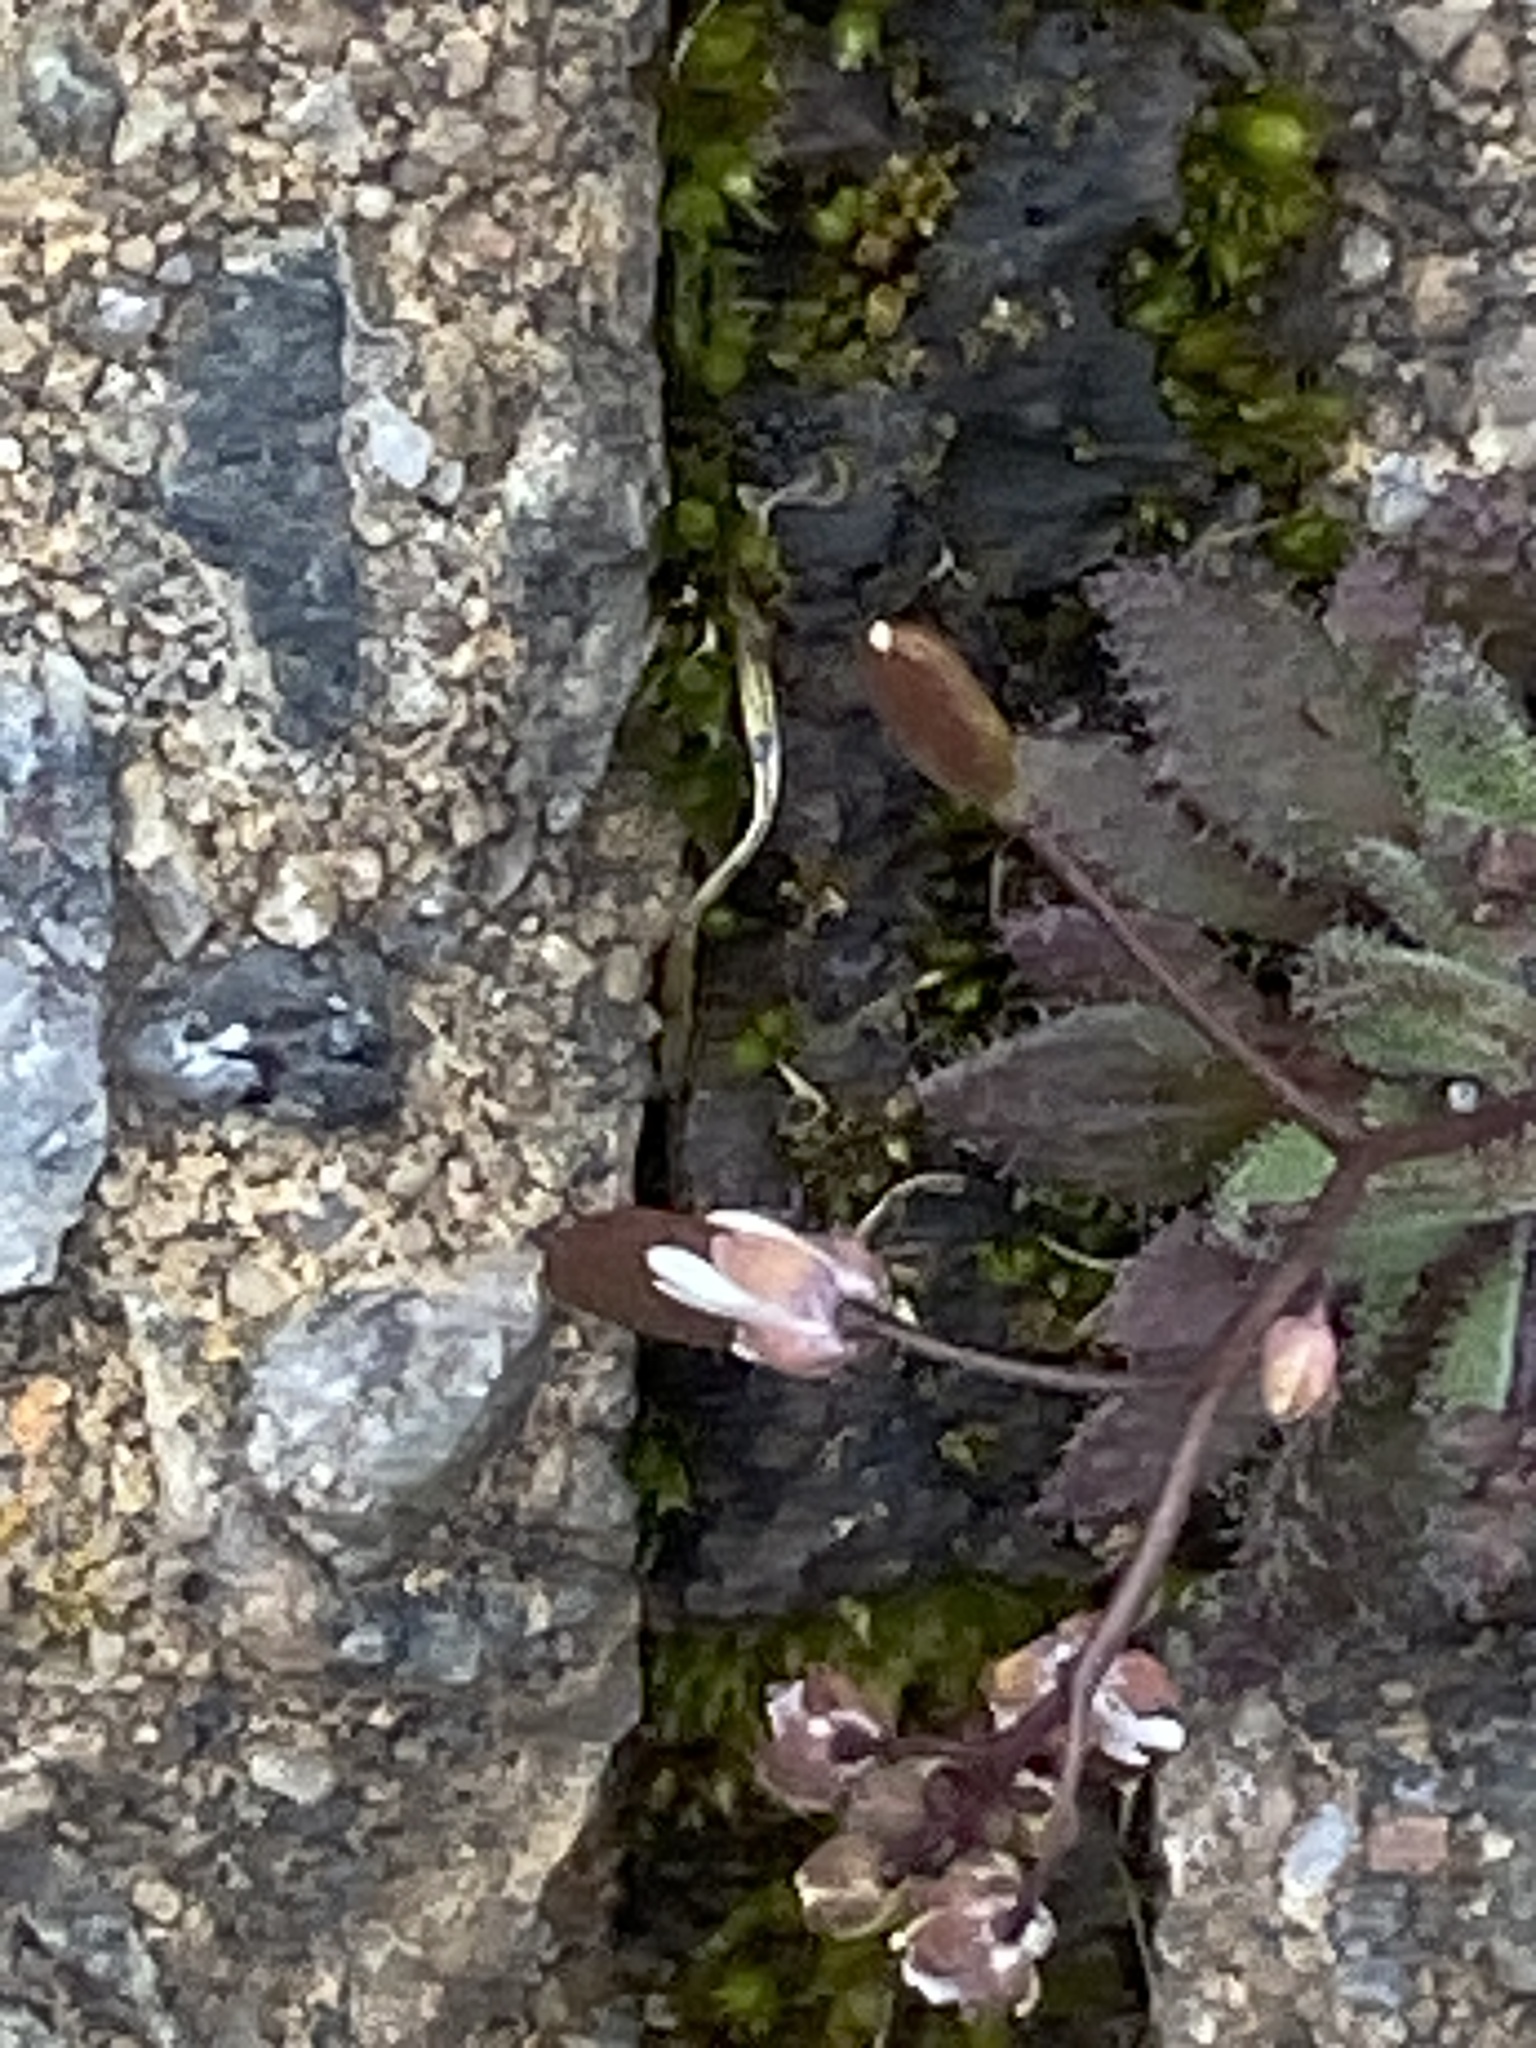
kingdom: Plantae
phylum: Tracheophyta
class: Magnoliopsida
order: Brassicales
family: Brassicaceae
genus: Draba
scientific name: Draba verna
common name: Spring draba
